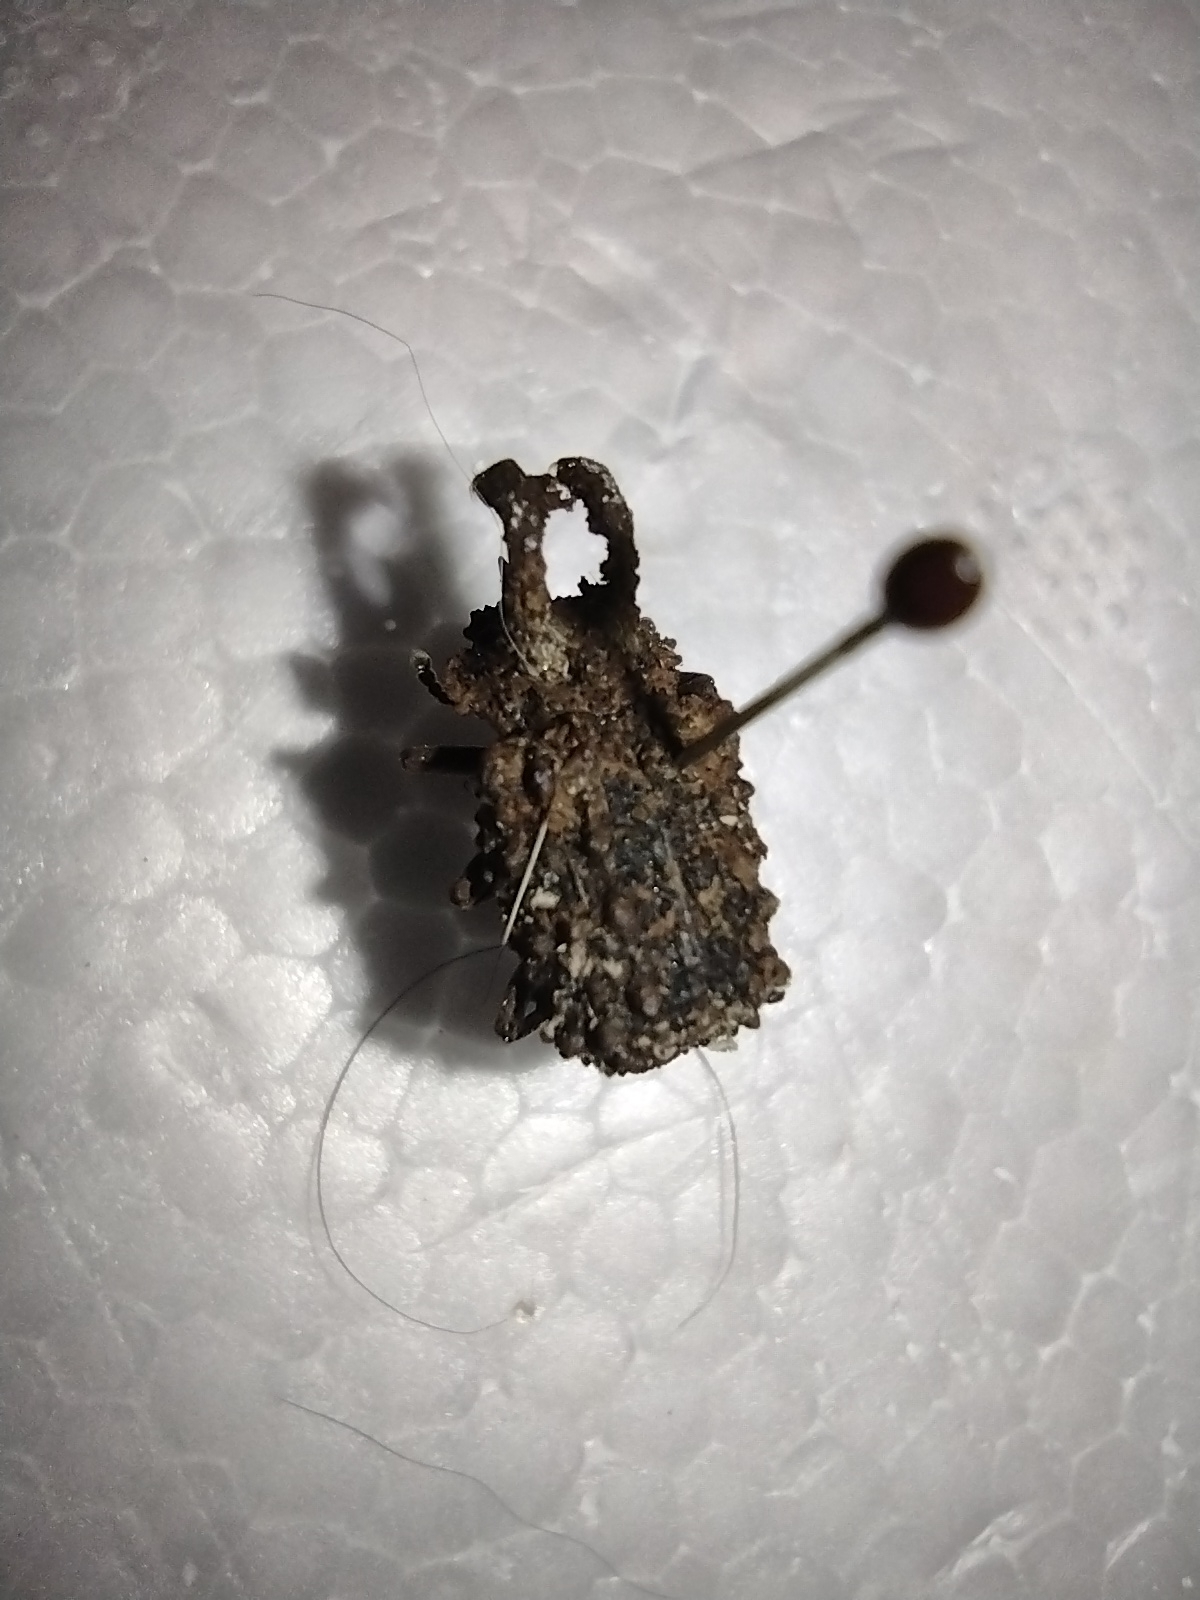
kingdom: Animalia
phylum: Arthropoda
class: Insecta
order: Coleoptera
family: Tenebrionidae
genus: Gnatocerus
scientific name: Gnatocerus cornutus
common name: Broad-horned flour beetle
